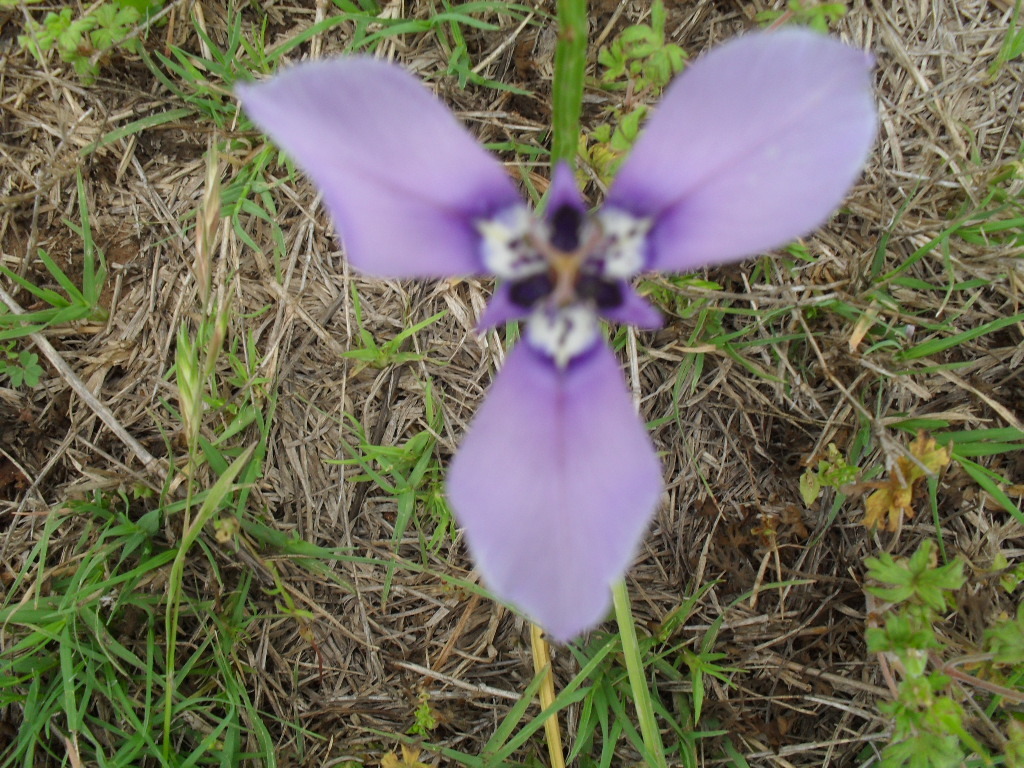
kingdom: Plantae
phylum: Tracheophyta
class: Liliopsida
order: Asparagales
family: Iridaceae
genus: Herbertia
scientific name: Herbertia lahue
